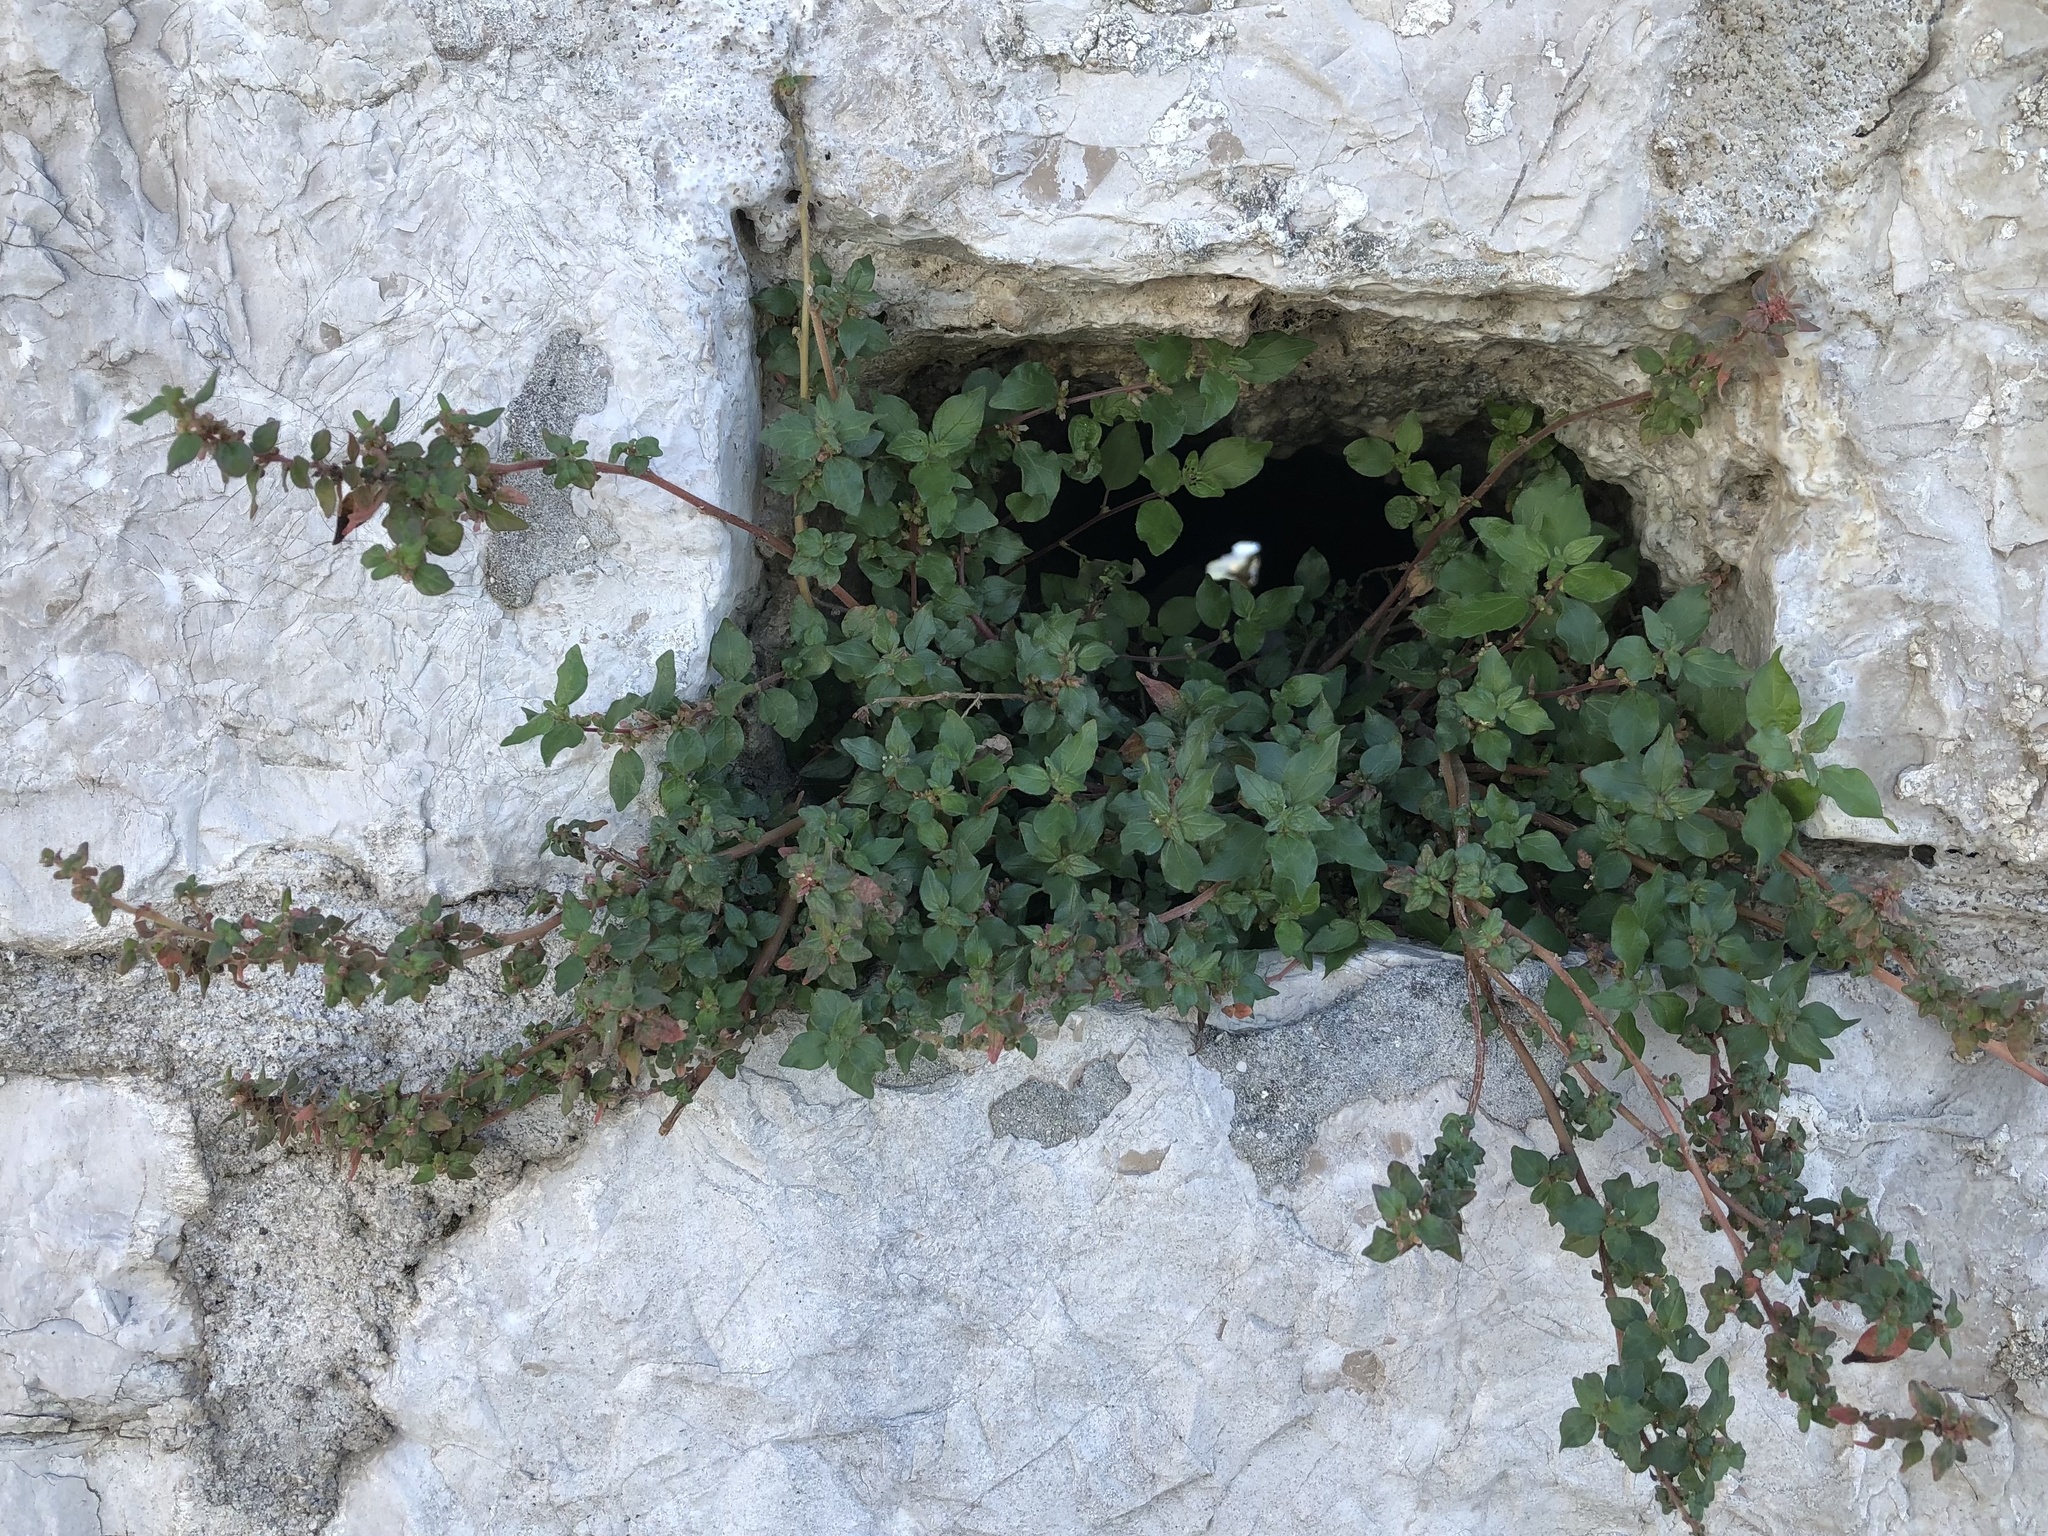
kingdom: Plantae
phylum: Tracheophyta
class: Magnoliopsida
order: Rosales
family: Urticaceae
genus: Parietaria
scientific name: Parietaria judaica
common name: Pellitory-of-the-wall
